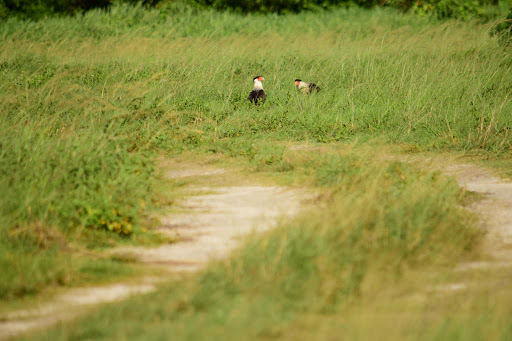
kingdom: Animalia
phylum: Chordata
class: Aves
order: Falconiformes
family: Falconidae
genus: Caracara
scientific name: Caracara plancus
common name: Southern caracara
